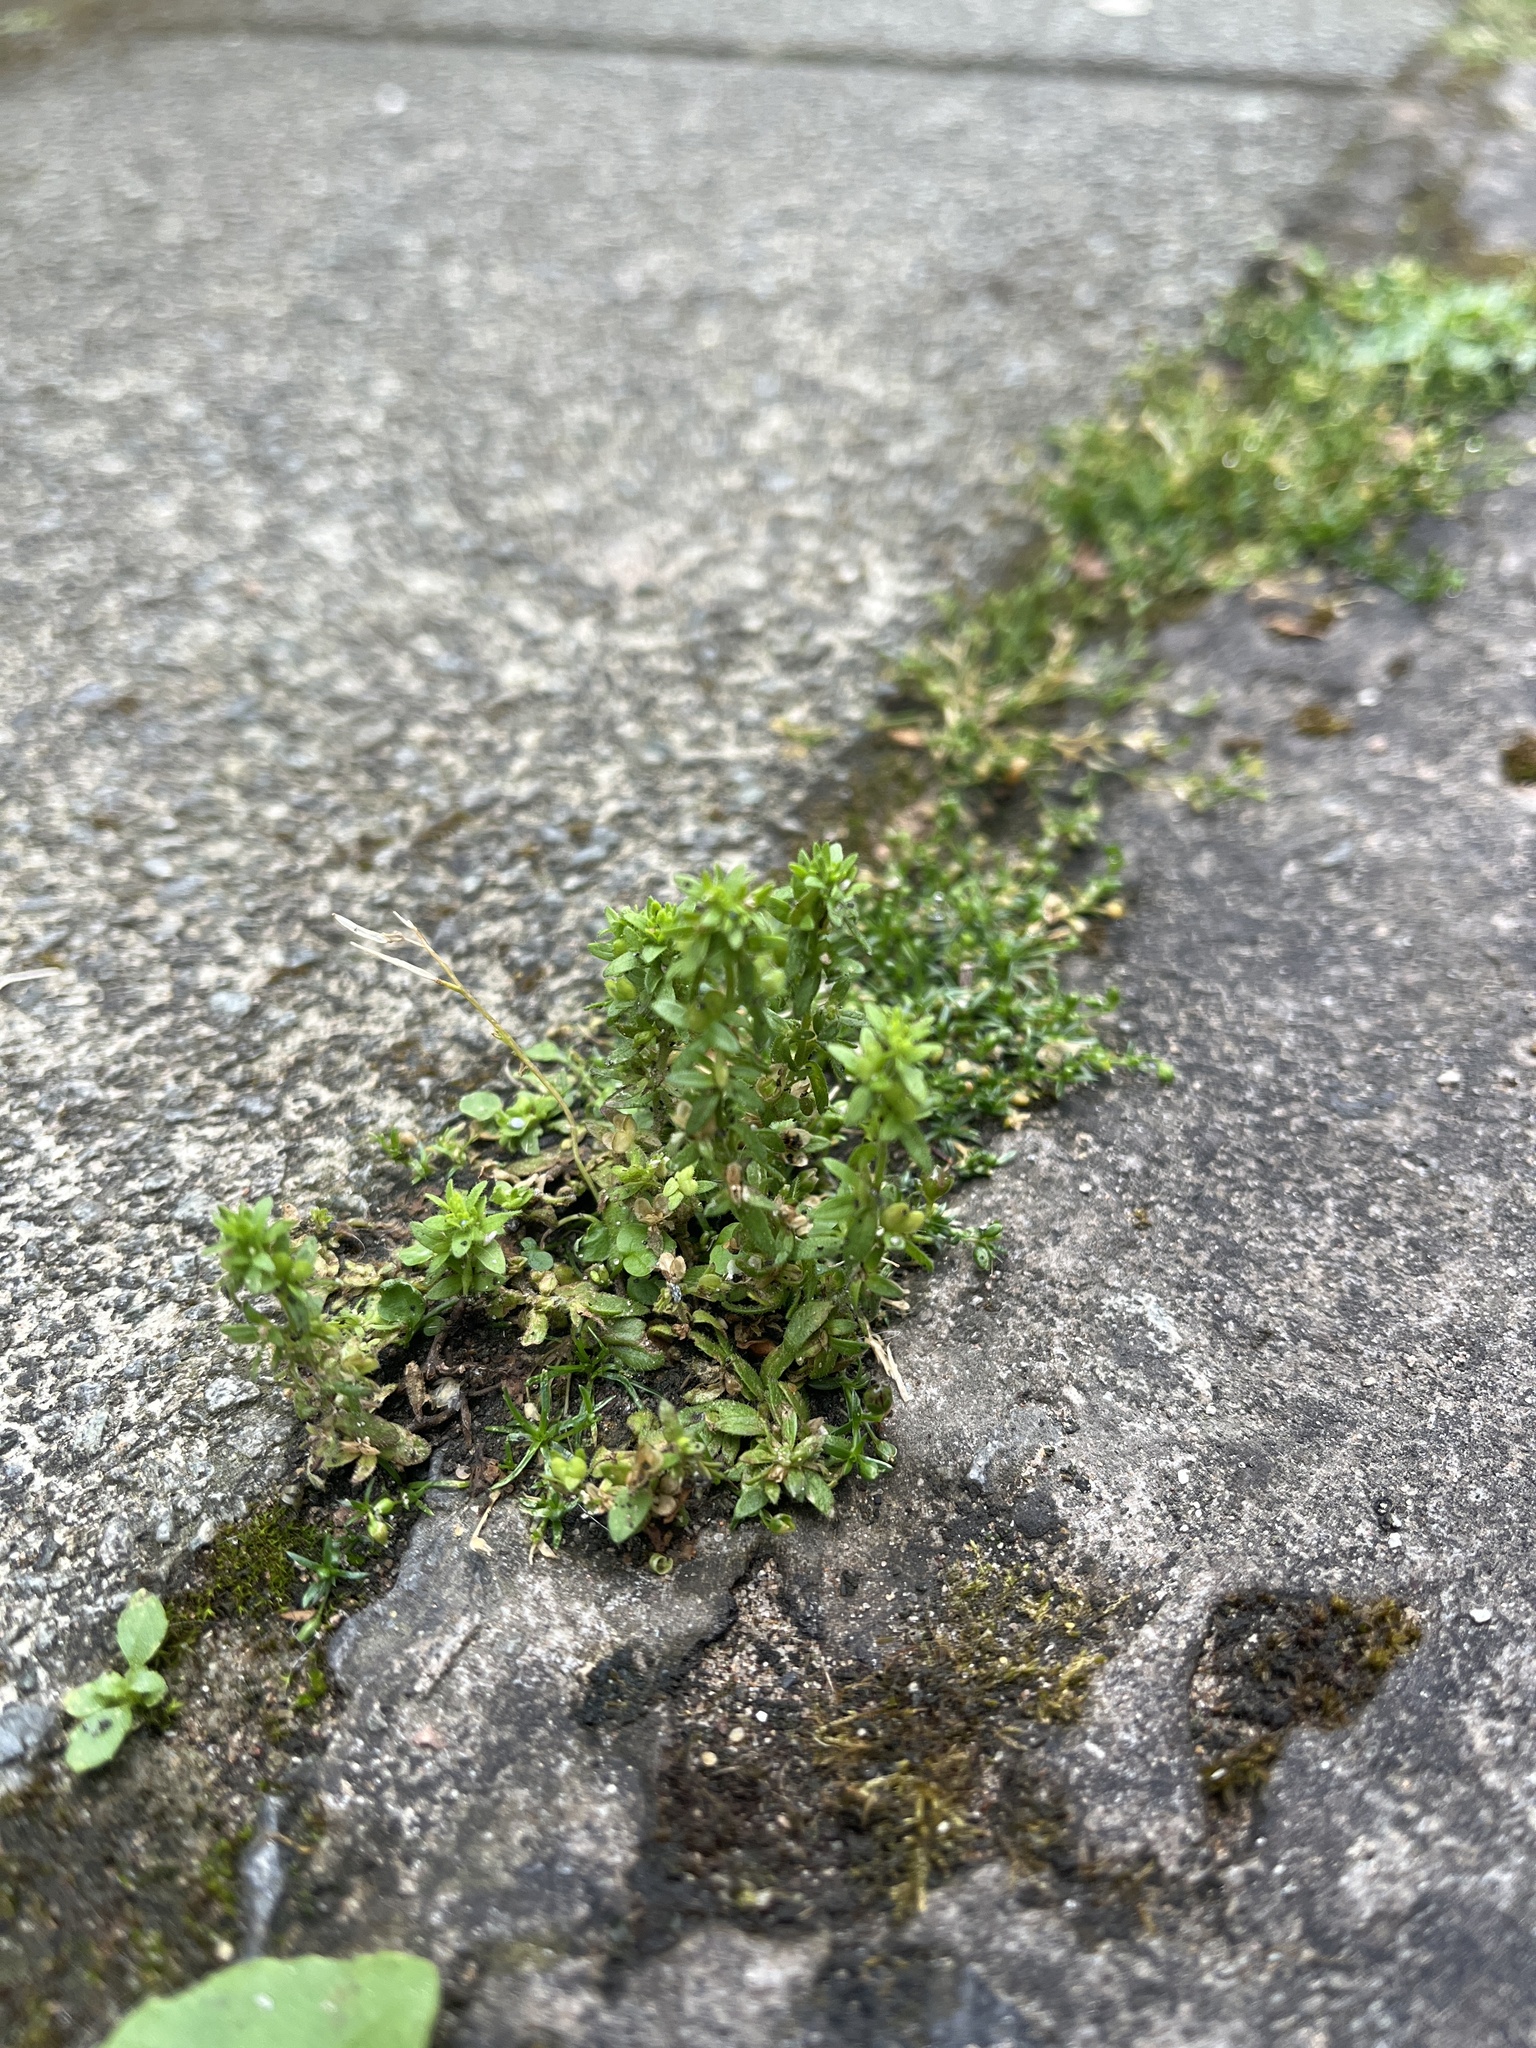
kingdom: Plantae
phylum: Tracheophyta
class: Magnoliopsida
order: Lamiales
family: Plantaginaceae
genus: Veronica
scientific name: Veronica arvensis
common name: Corn speedwell
